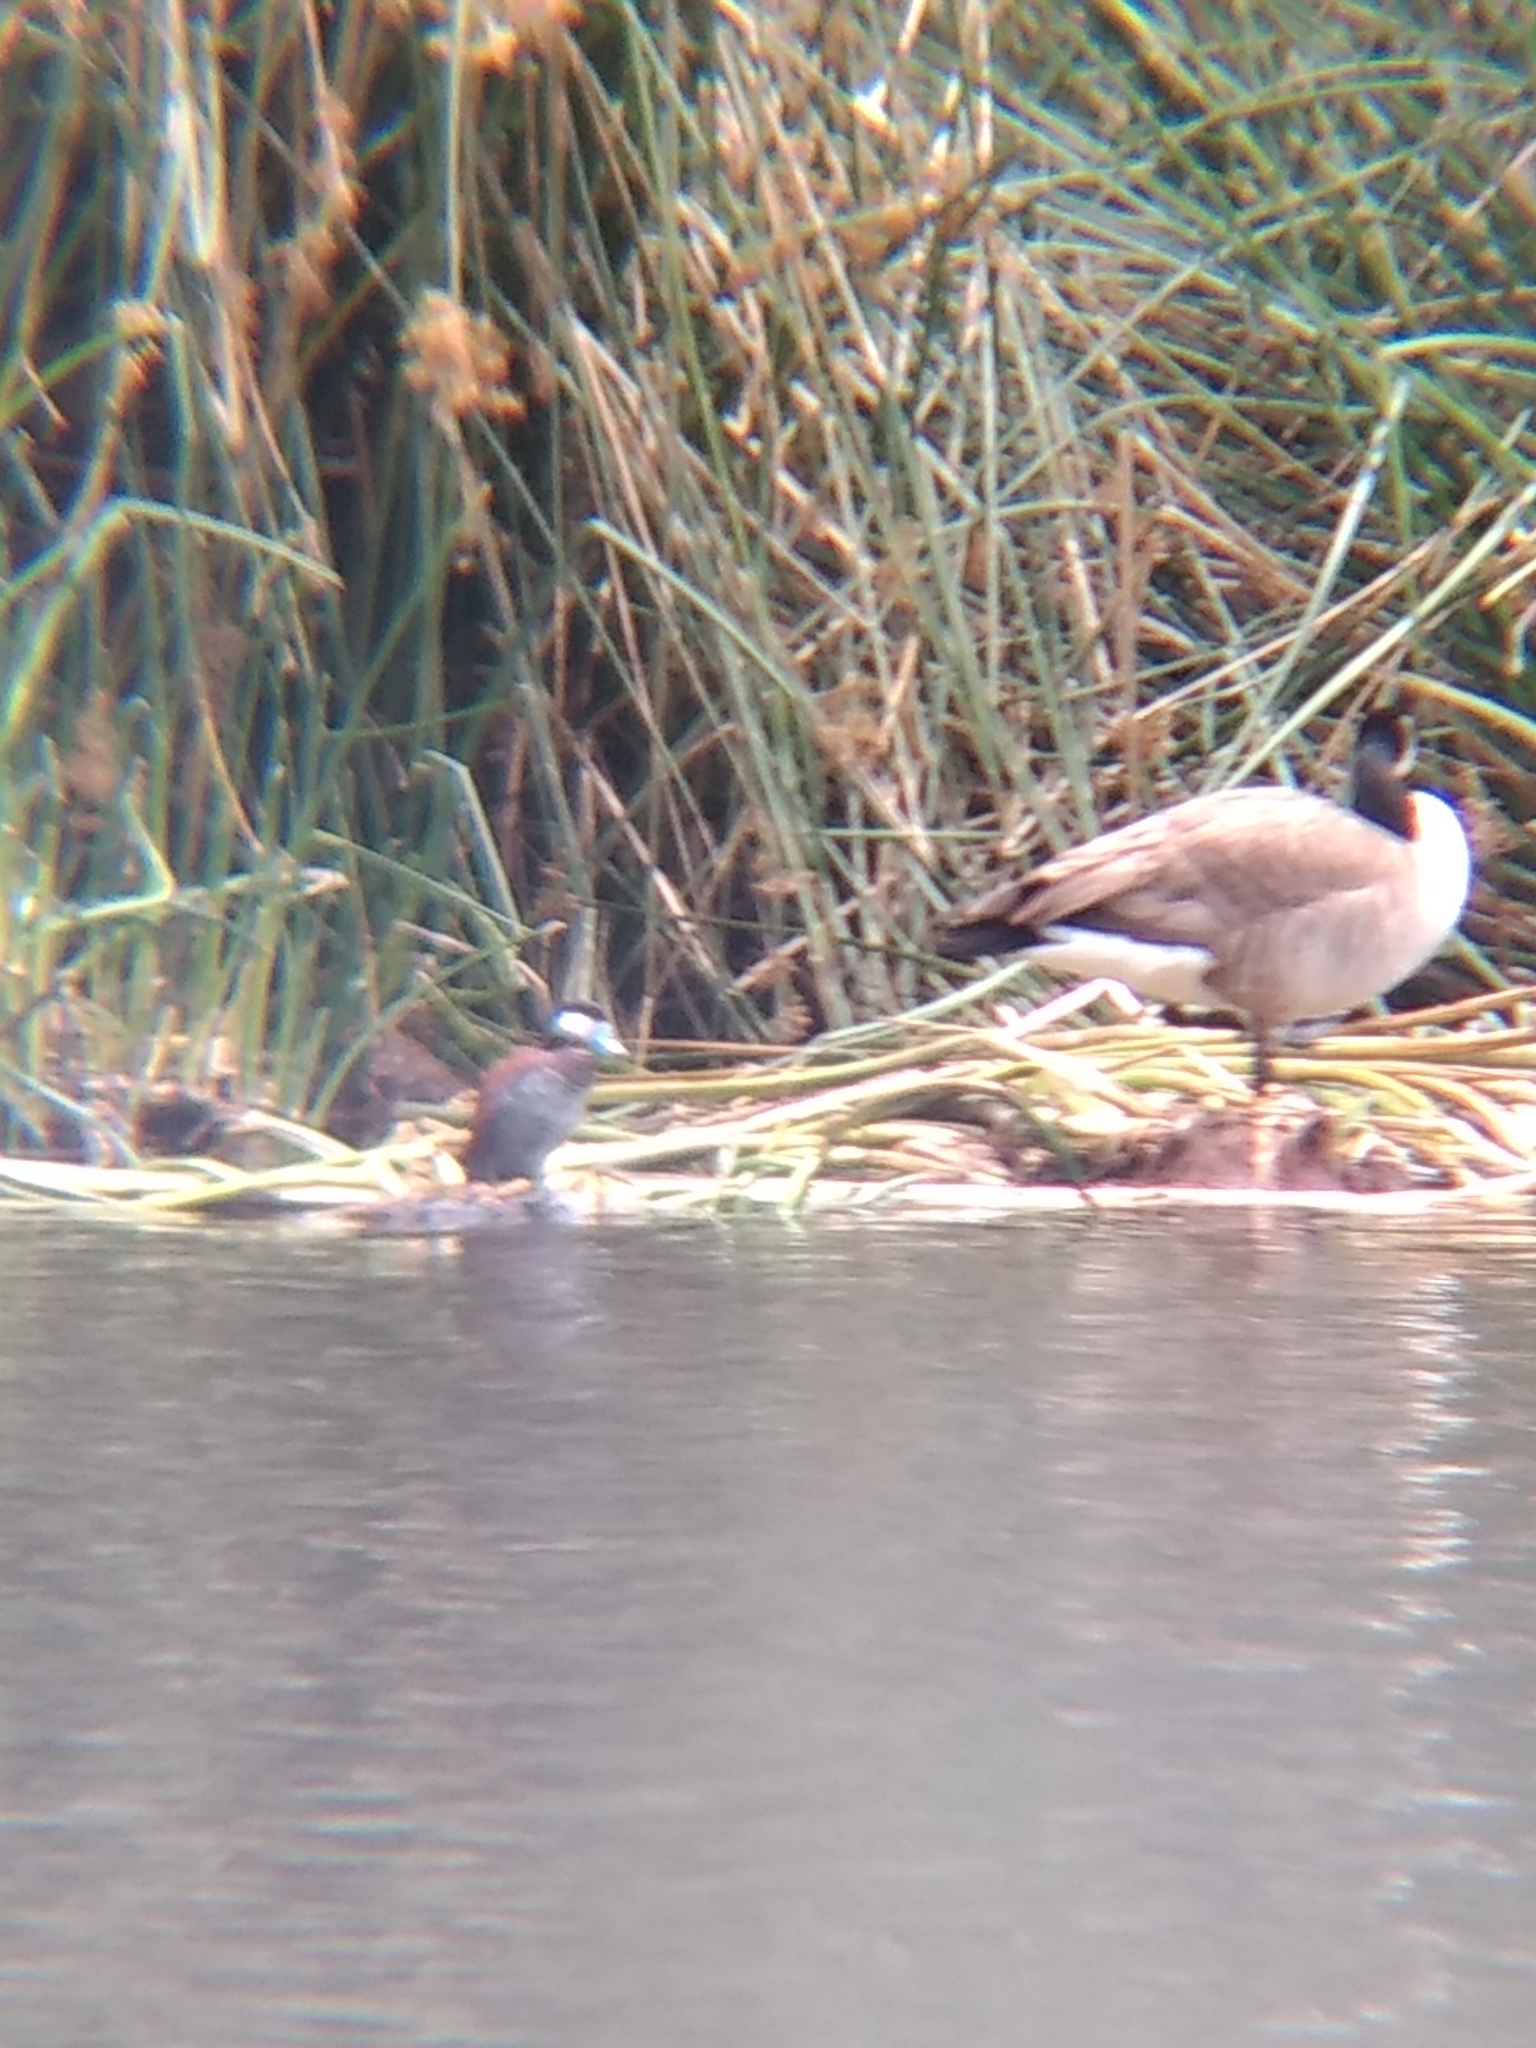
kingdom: Animalia
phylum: Chordata
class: Aves
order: Anseriformes
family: Anatidae
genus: Oxyura
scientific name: Oxyura jamaicensis
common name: Ruddy duck
